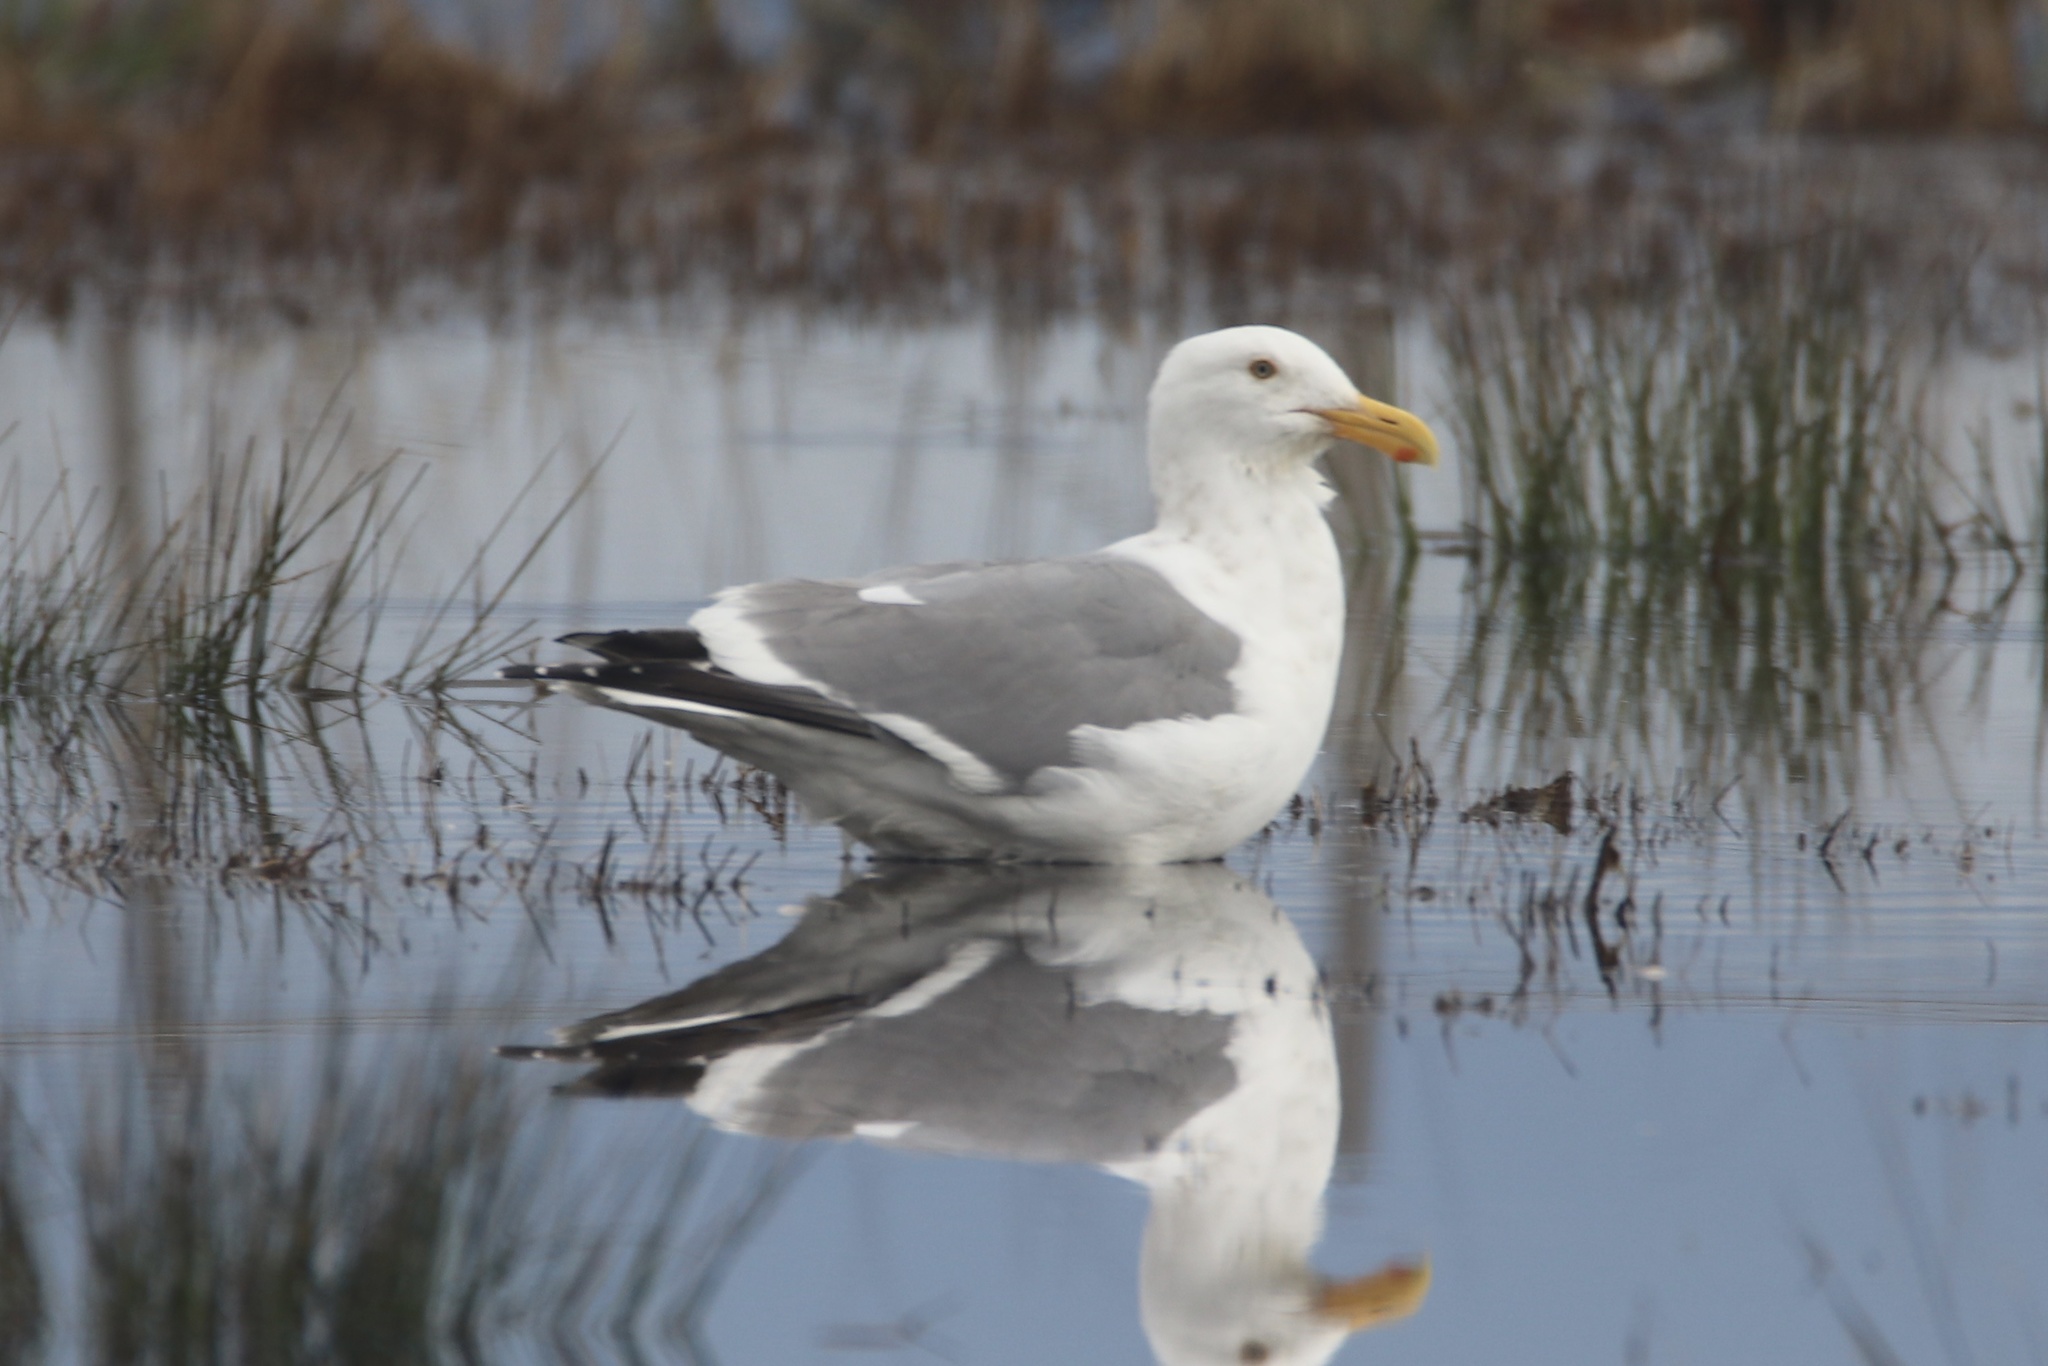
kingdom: Animalia
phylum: Chordata
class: Aves
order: Charadriiformes
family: Laridae
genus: Larus
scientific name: Larus occidentalis
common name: Western gull
